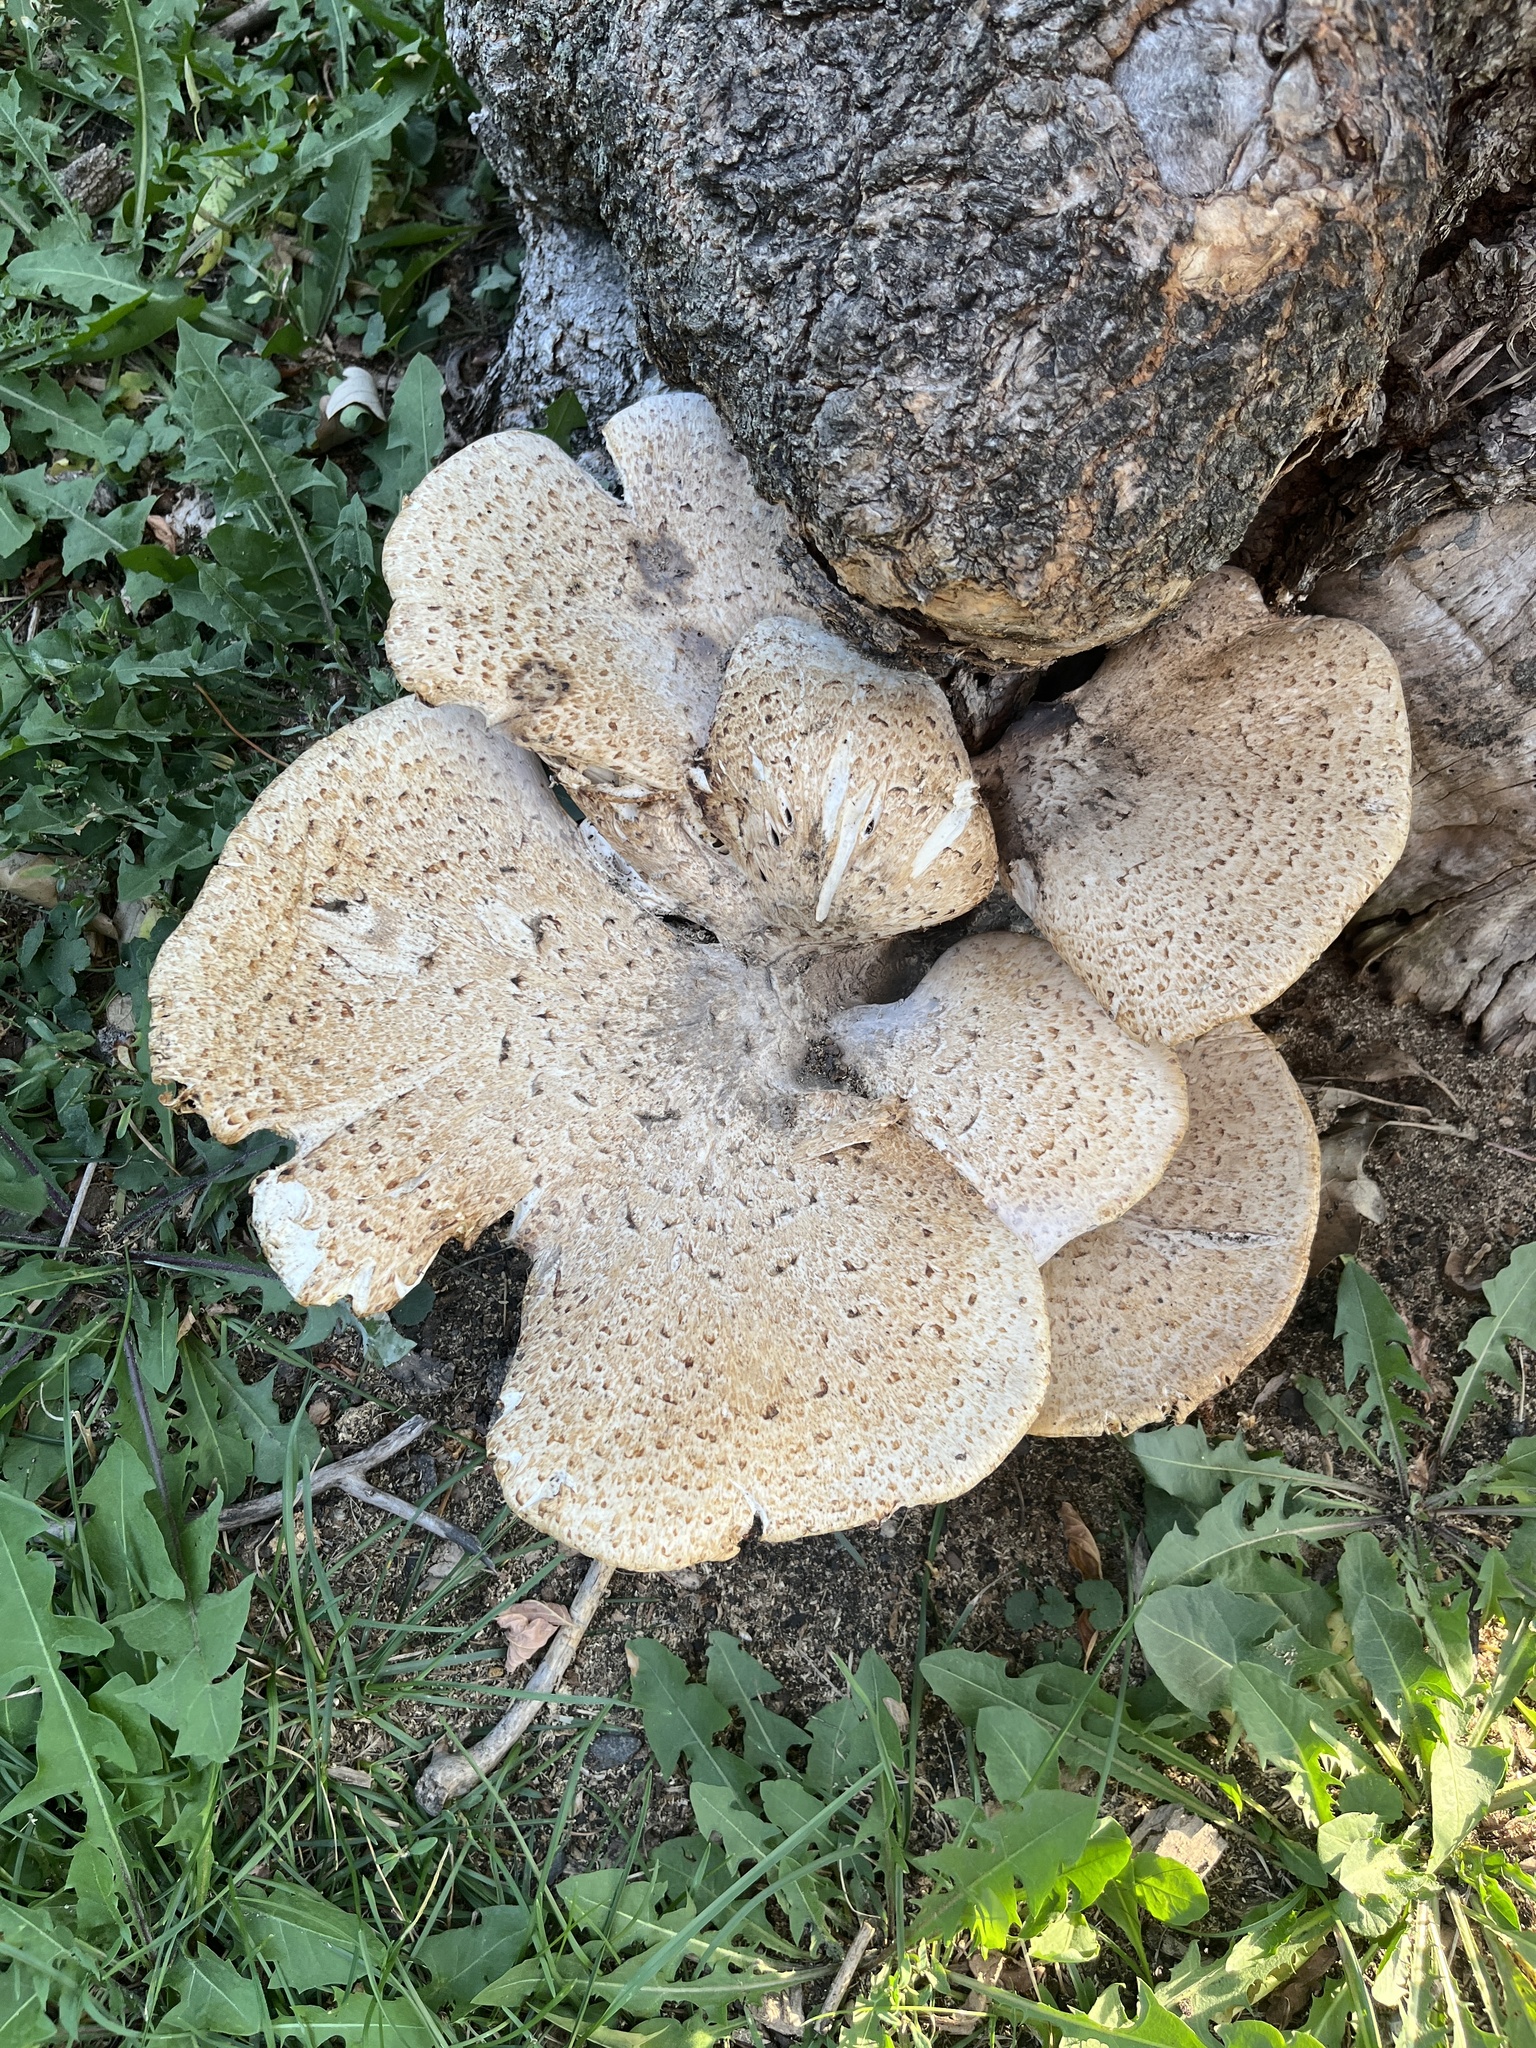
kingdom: Fungi
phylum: Basidiomycota
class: Agaricomycetes
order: Polyporales
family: Polyporaceae
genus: Cerioporus
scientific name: Cerioporus squamosus
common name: Dryad's saddle
